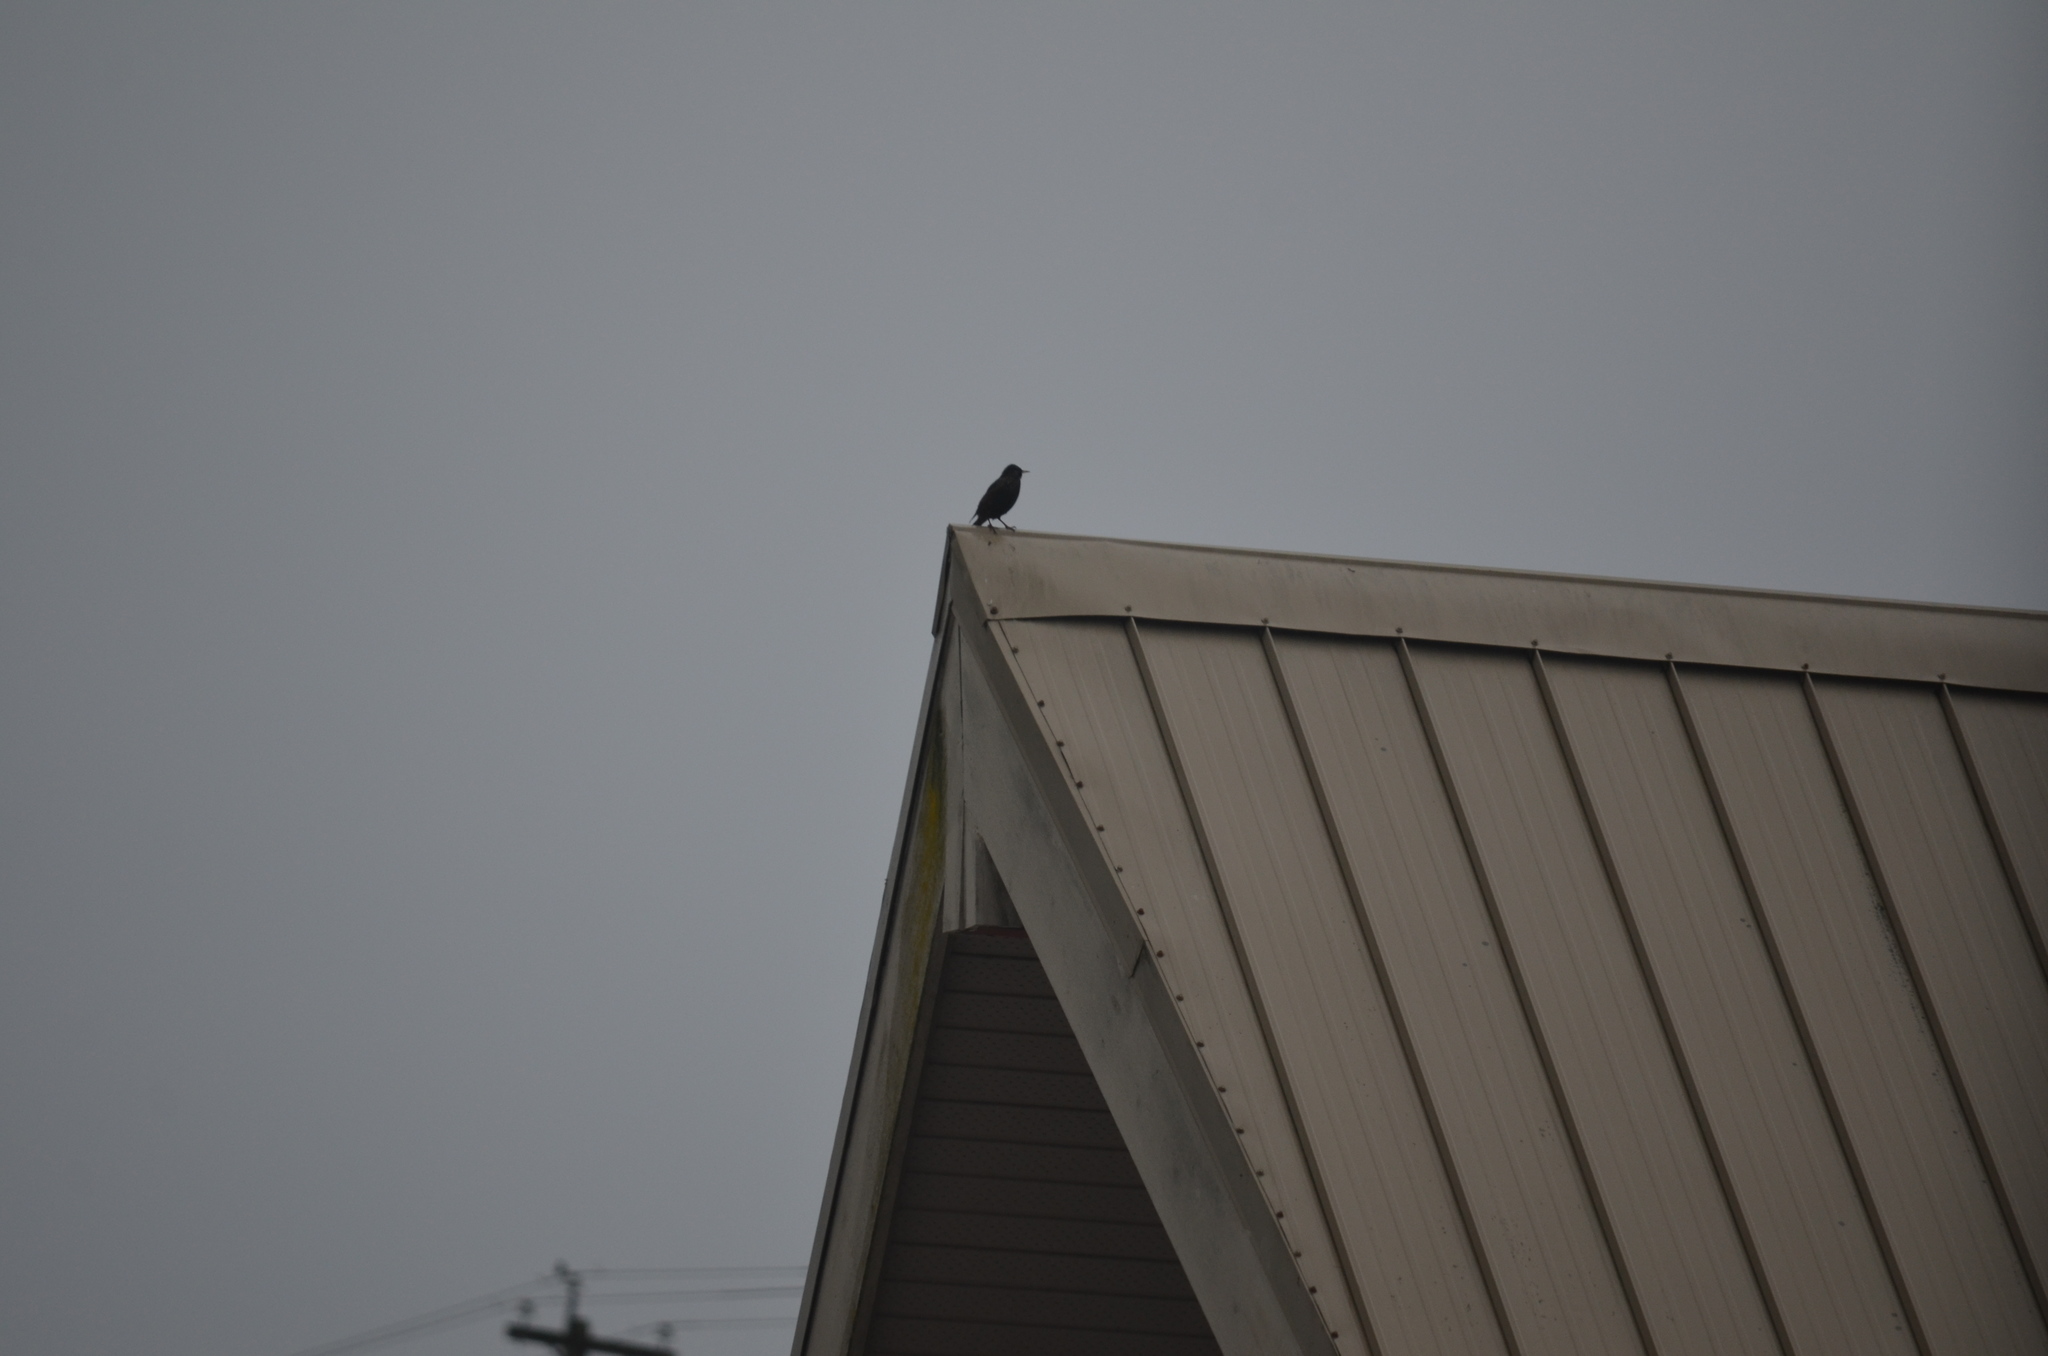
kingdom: Animalia
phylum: Chordata
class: Aves
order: Passeriformes
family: Sturnidae
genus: Sturnus
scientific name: Sturnus vulgaris
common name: Common starling
